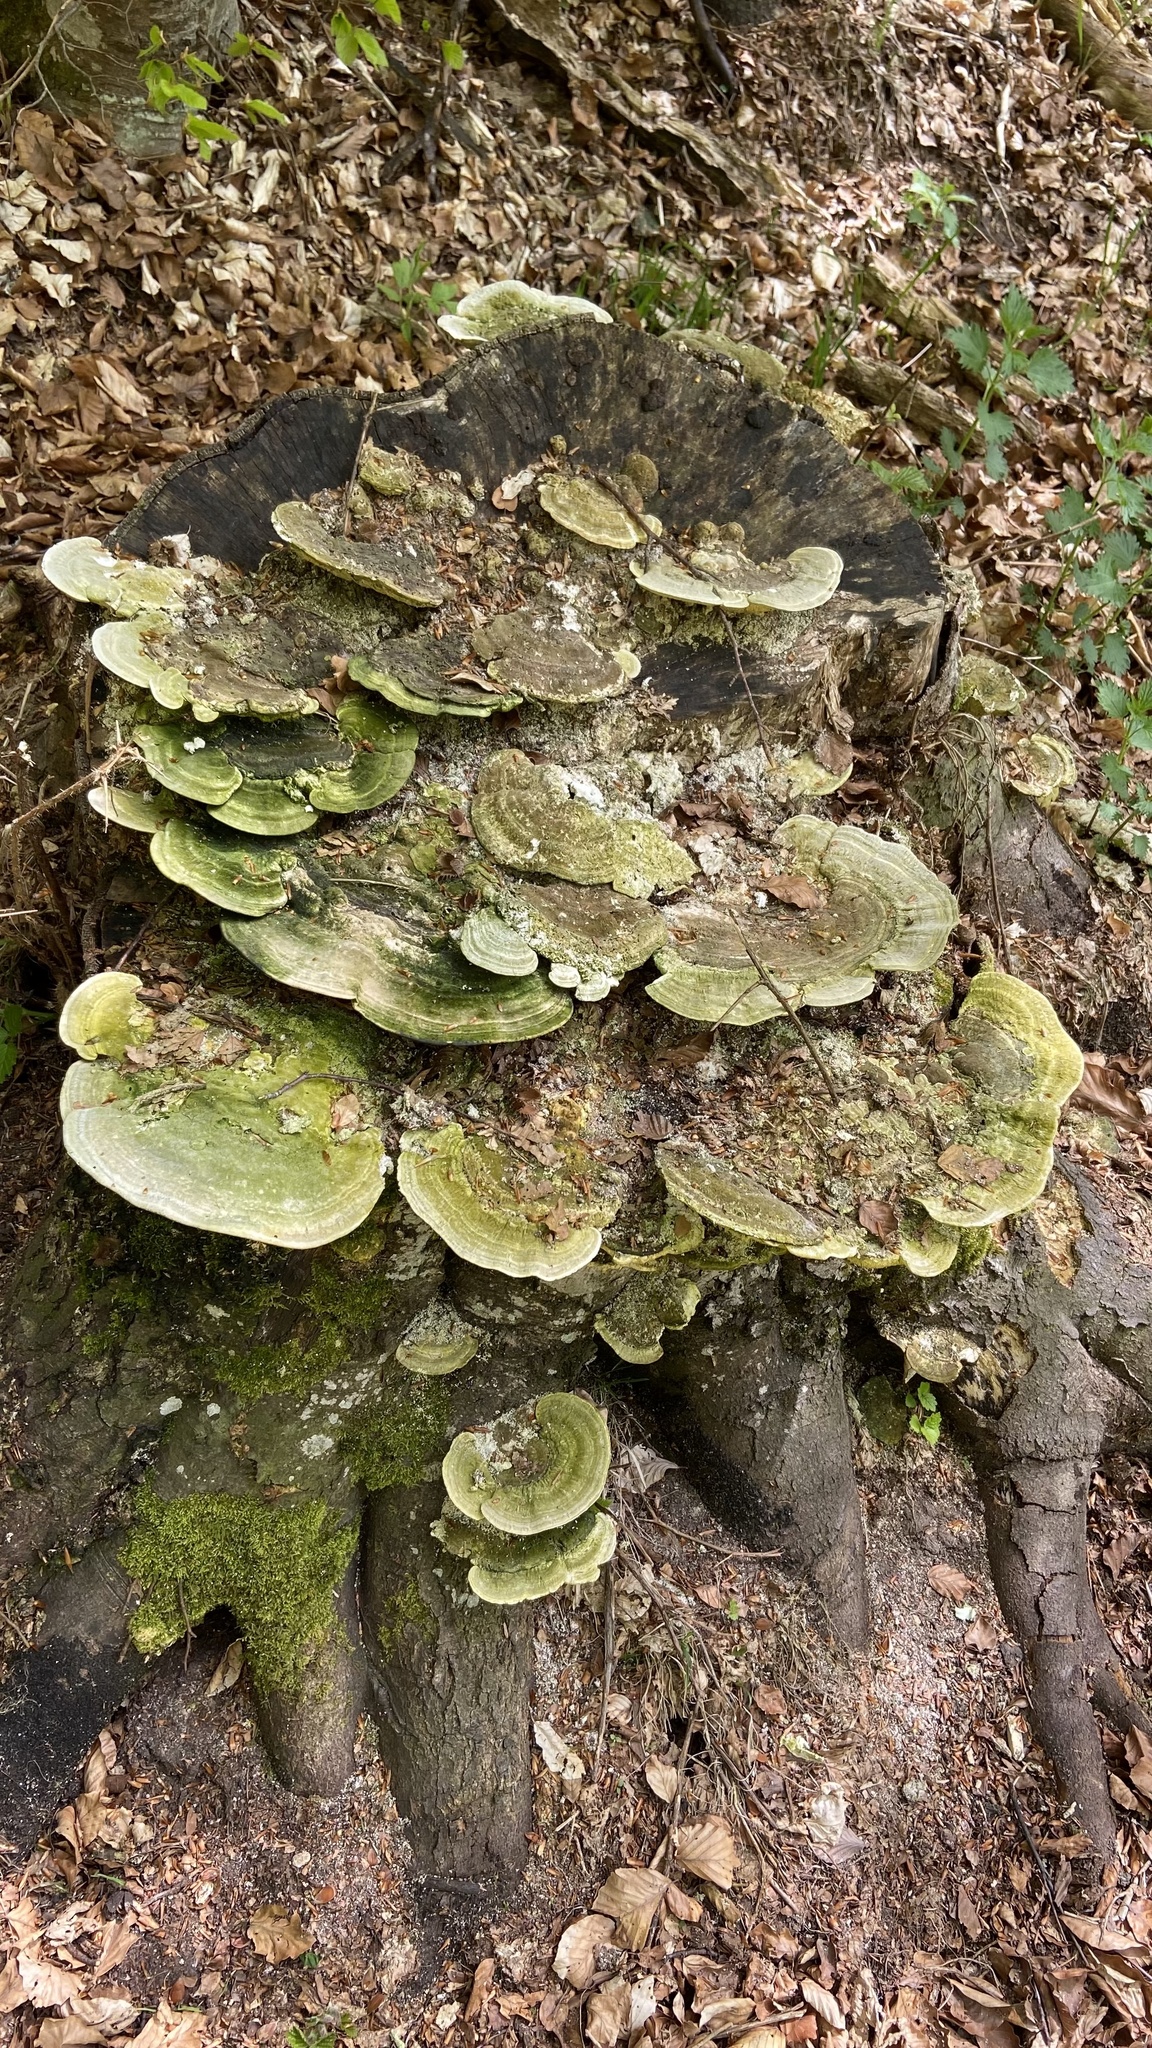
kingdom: Fungi
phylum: Basidiomycota
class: Agaricomycetes
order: Polyporales
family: Polyporaceae
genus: Trametes
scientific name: Trametes gibbosa
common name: Lumpy bracket
